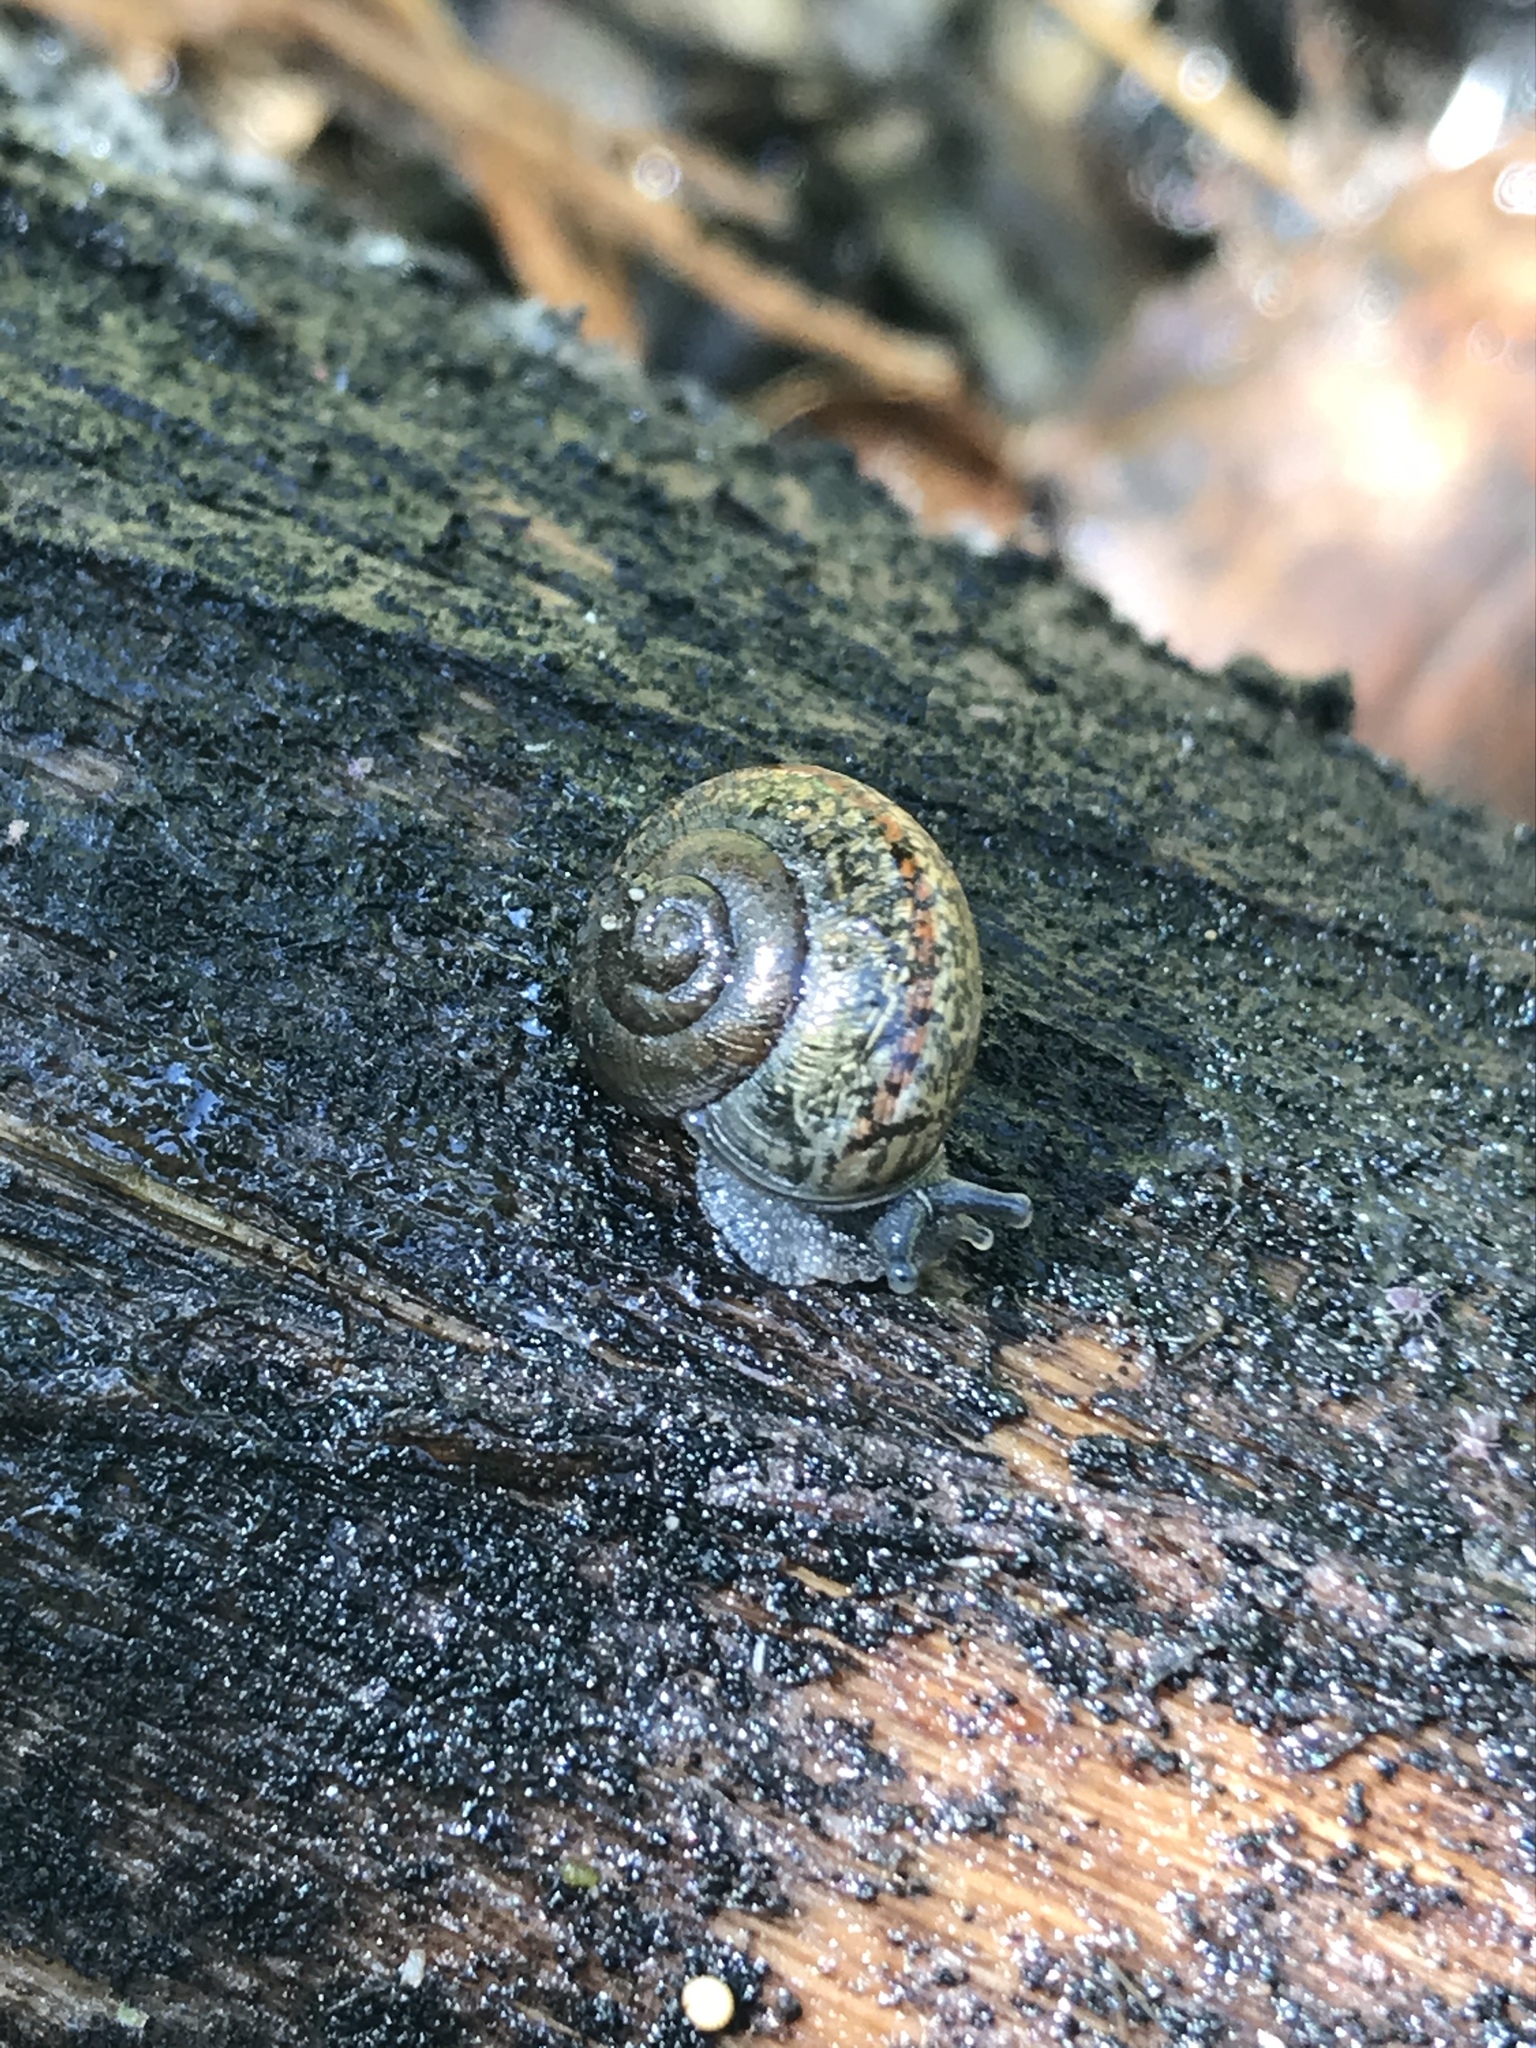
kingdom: Animalia
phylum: Mollusca
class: Gastropoda
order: Stylommatophora
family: Xanthonychidae
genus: Helminthoglypta
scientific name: Helminthoglypta
